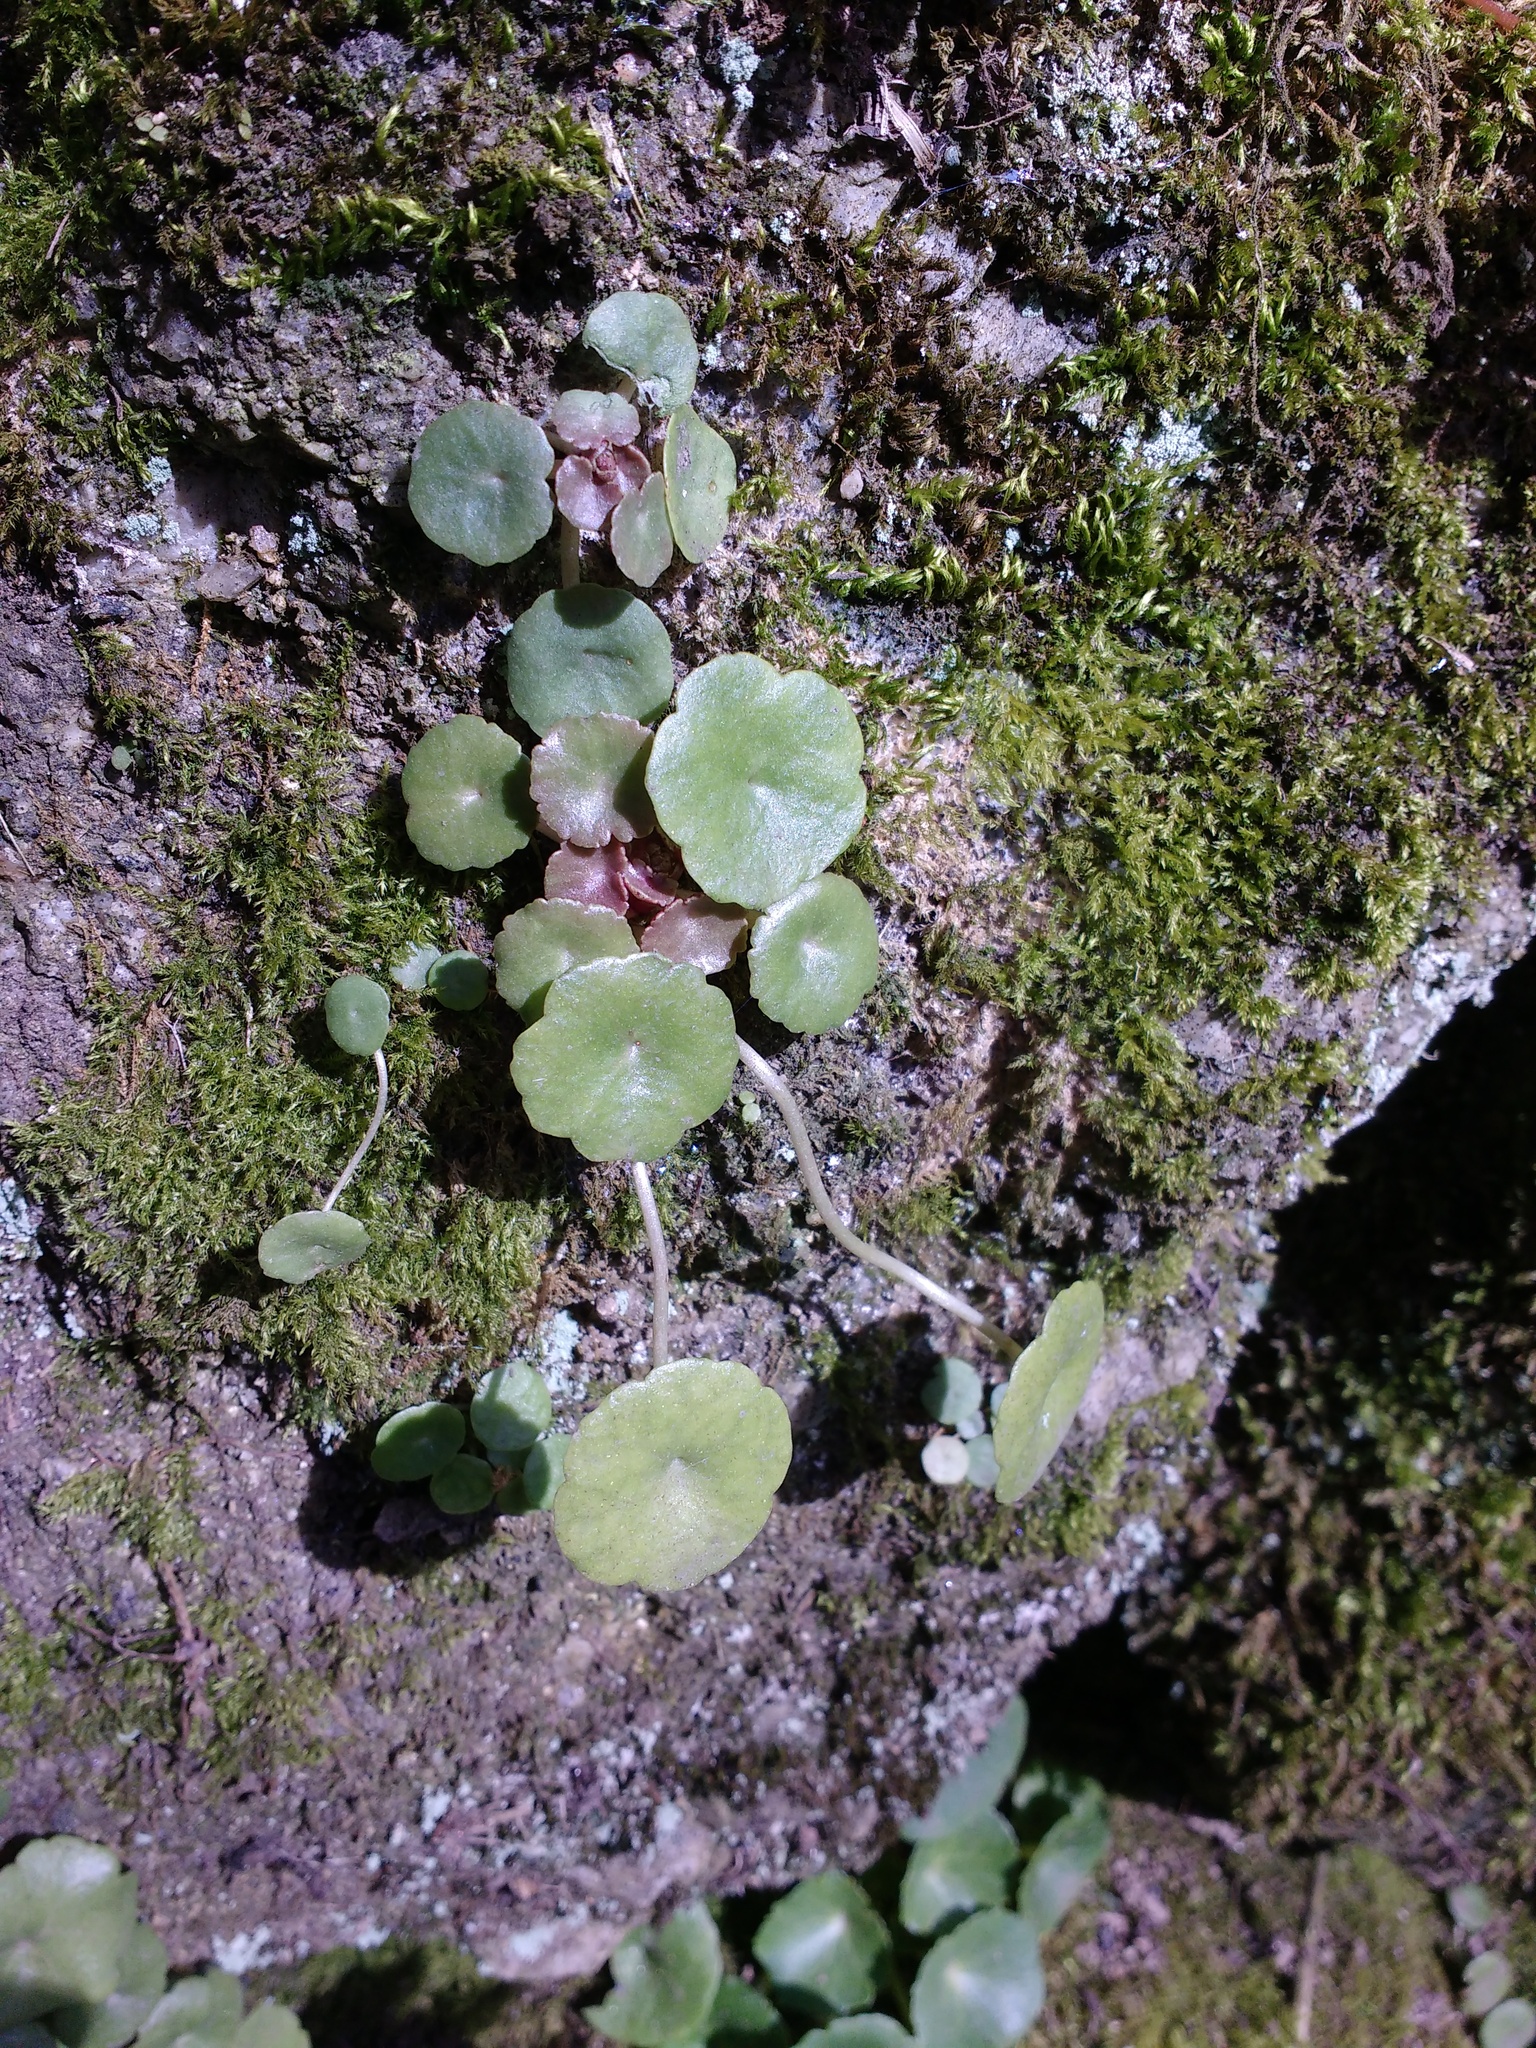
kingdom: Plantae
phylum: Tracheophyta
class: Magnoliopsida
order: Saxifragales
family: Crassulaceae
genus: Umbilicus
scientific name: Umbilicus rupestris
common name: Navelwort
